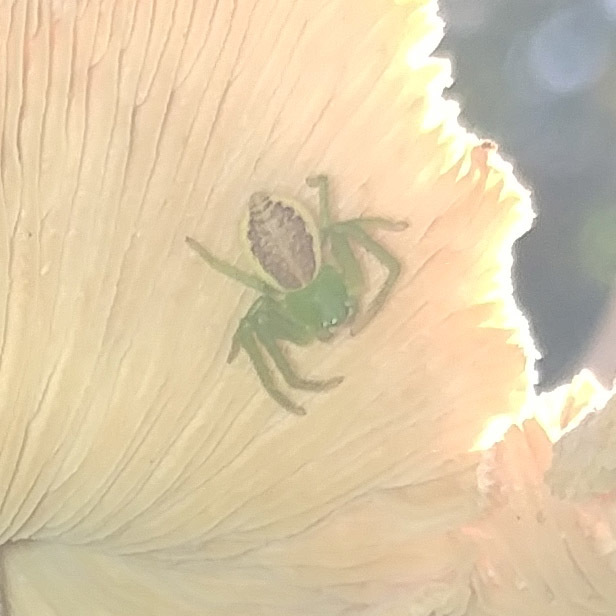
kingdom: Animalia
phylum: Arthropoda
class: Arachnida
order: Araneae
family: Thomisidae
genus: Diaea
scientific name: Diaea dorsata
